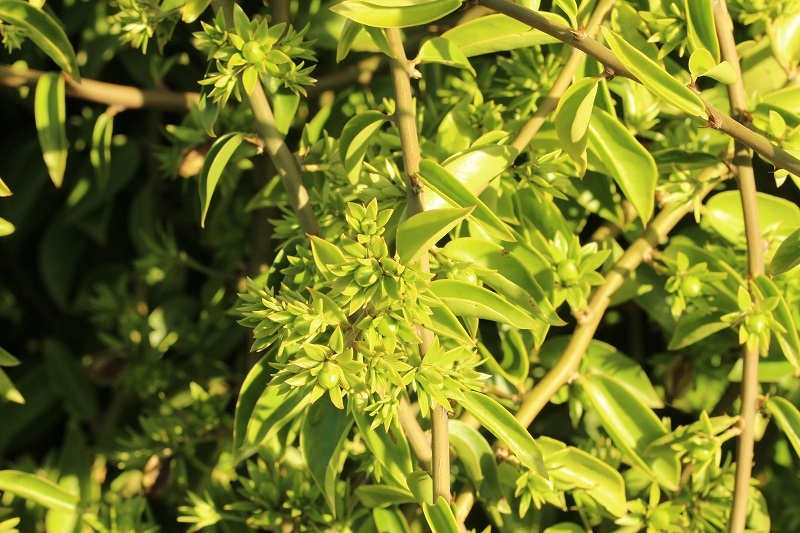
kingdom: Plantae
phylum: Tracheophyta
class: Magnoliopsida
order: Caryophyllales
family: Cactaceae
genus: Pereskia
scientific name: Pereskia aculeata
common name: Barbados gooseberry
